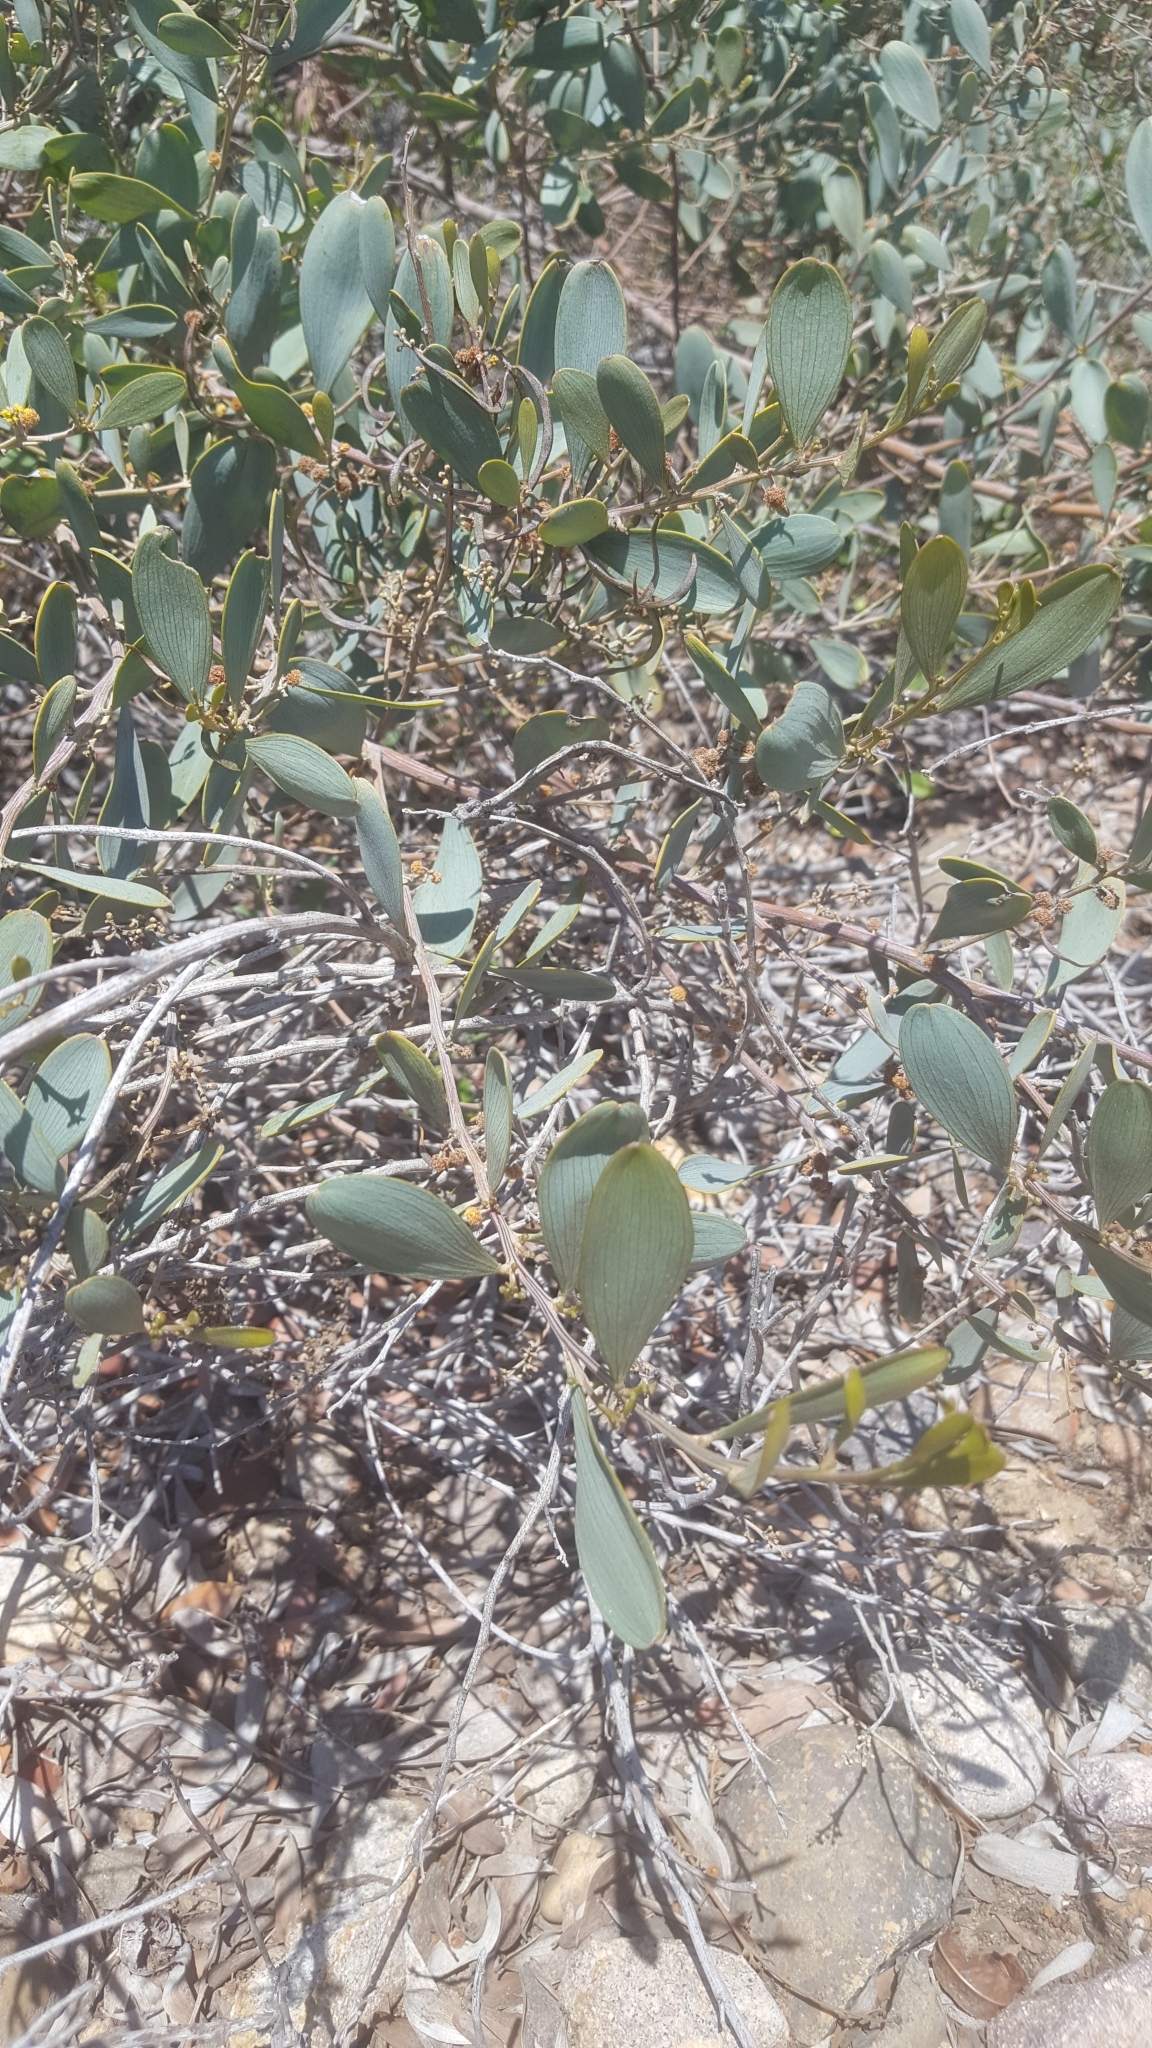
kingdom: Plantae
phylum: Tracheophyta
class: Magnoliopsida
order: Fabales
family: Fabaceae
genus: Acacia
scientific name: Acacia redolens
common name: Bank catclaw
